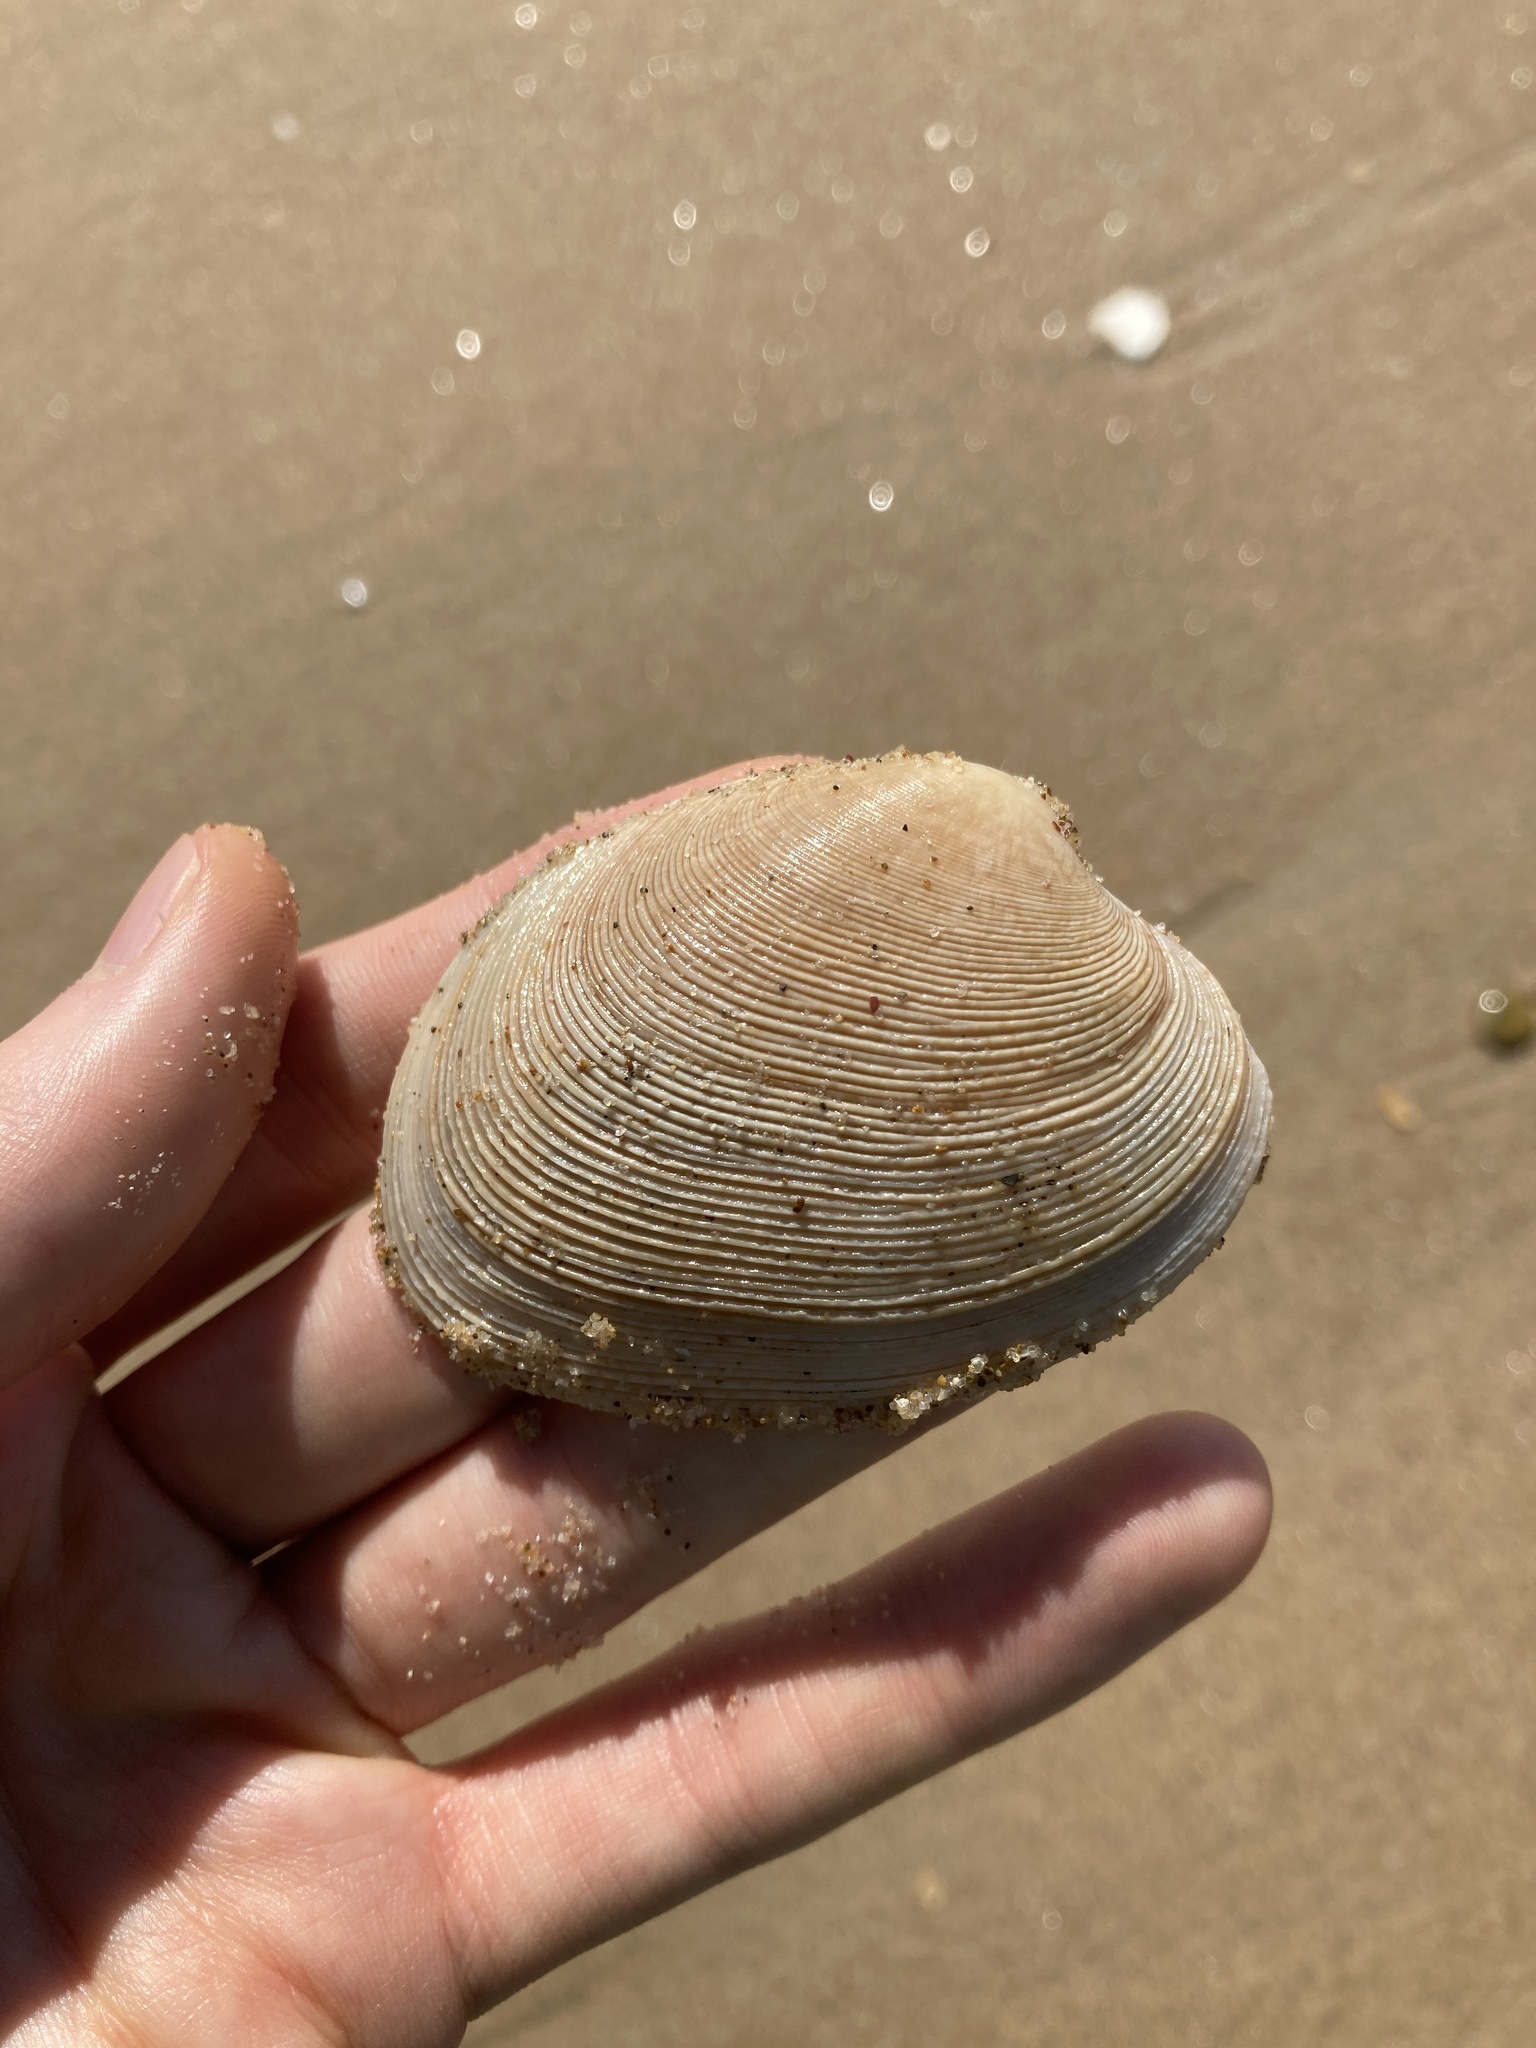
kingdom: Animalia
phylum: Mollusca
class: Bivalvia
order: Venerida
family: Veneridae
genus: Tapes
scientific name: Tapes conspersus
